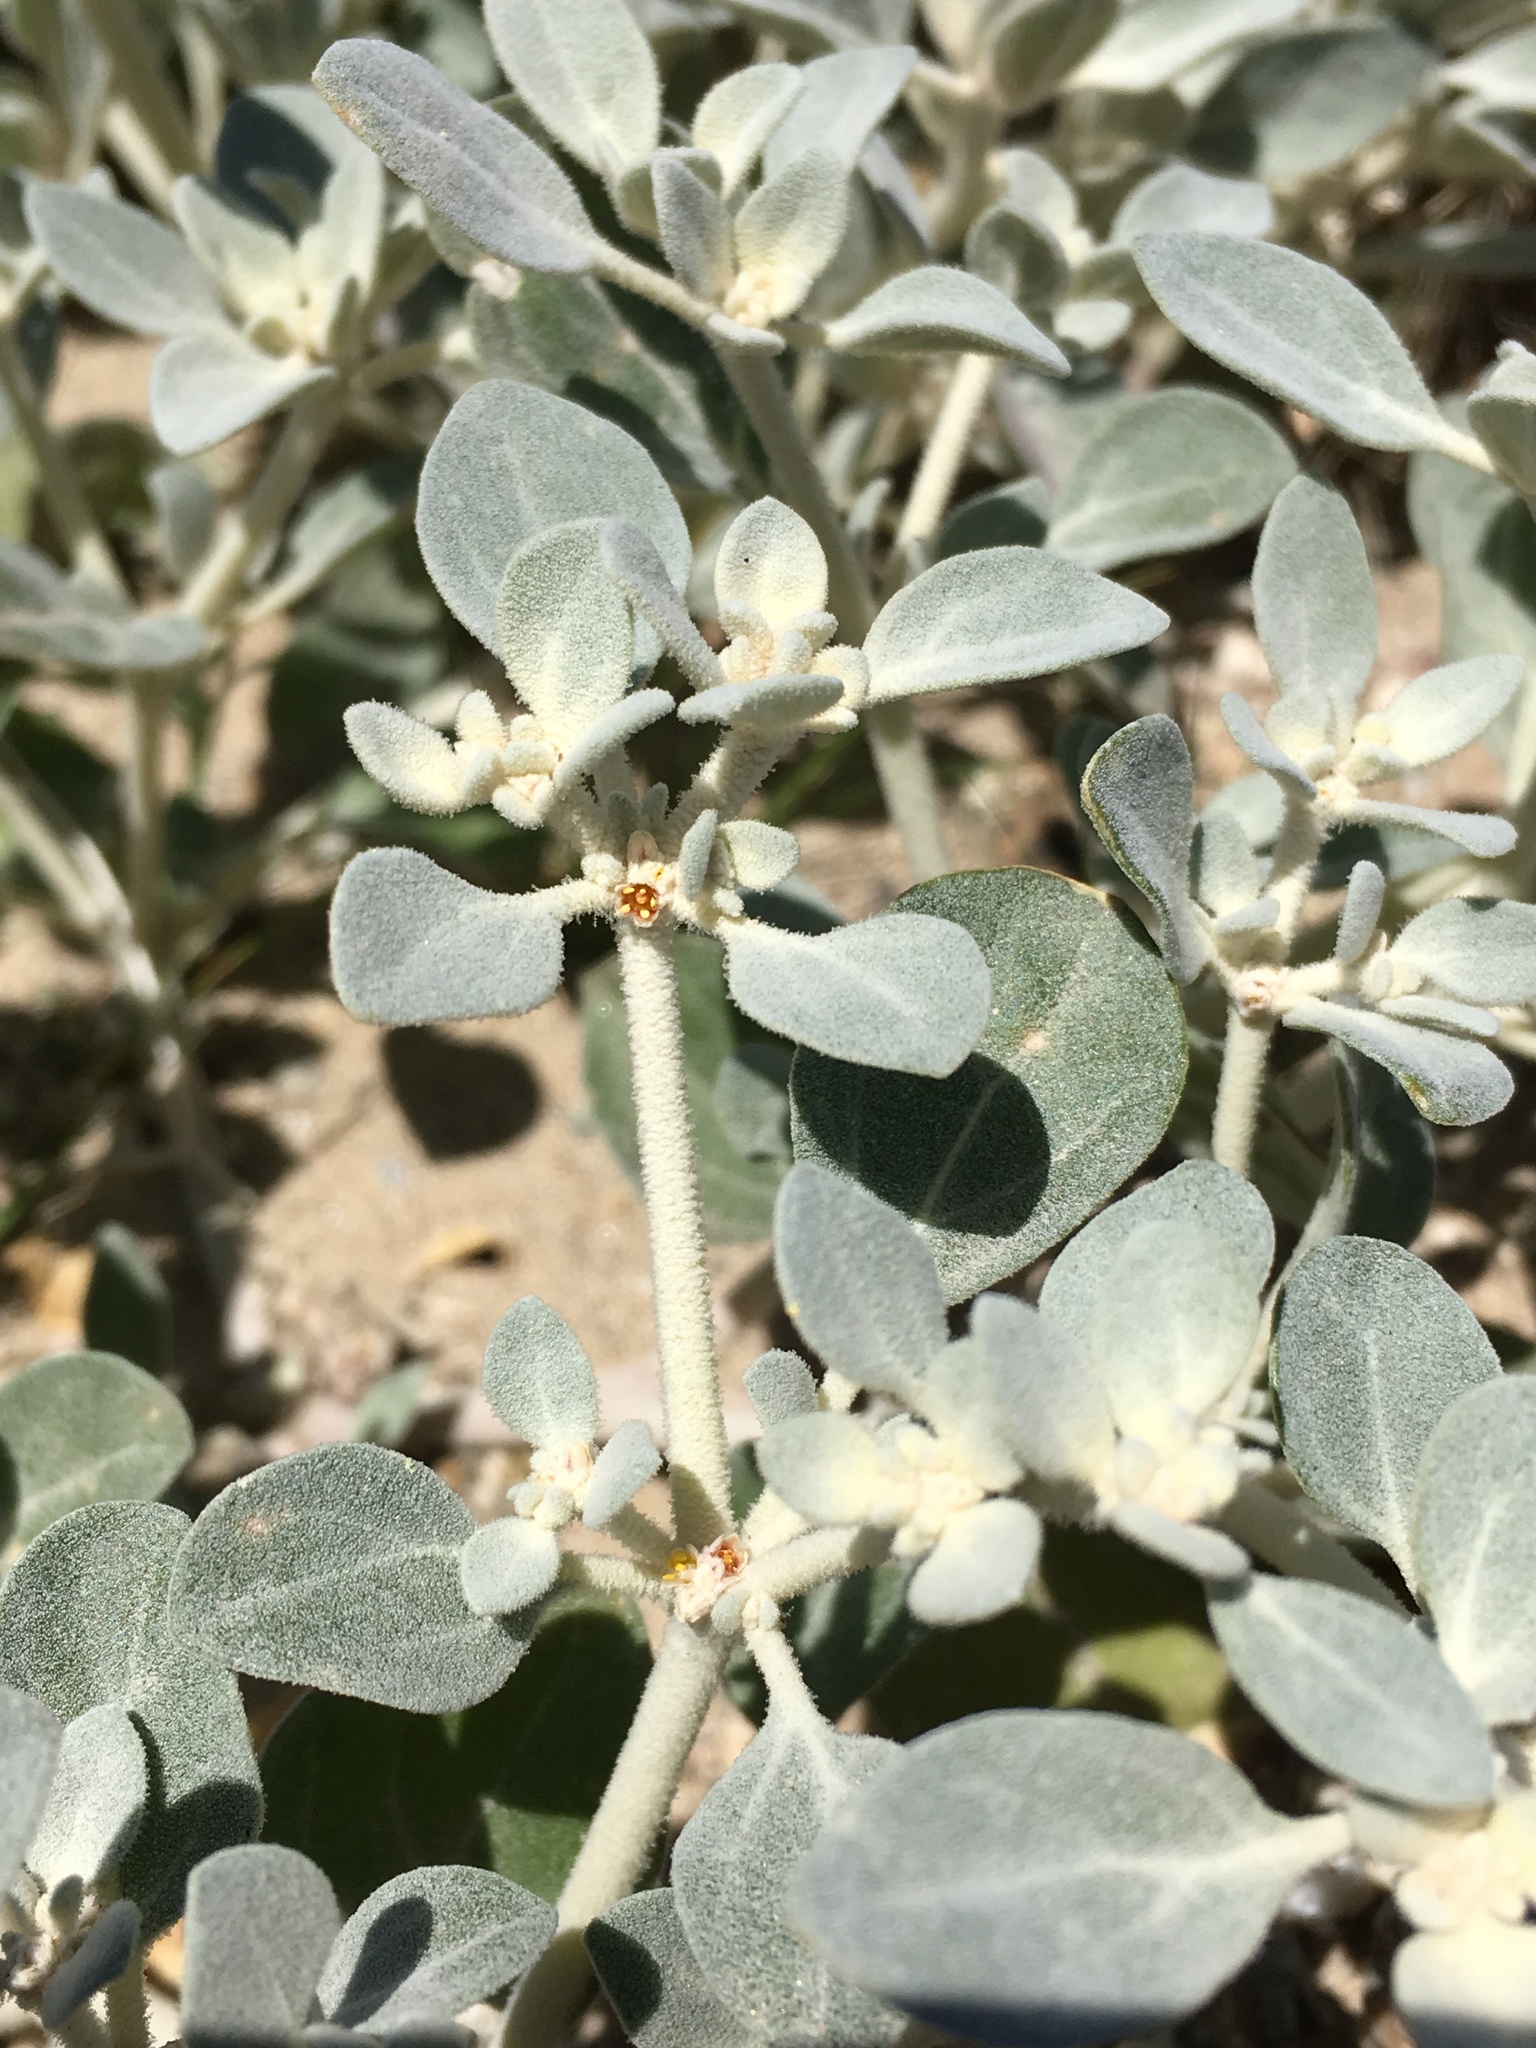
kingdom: Plantae
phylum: Tracheophyta
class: Magnoliopsida
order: Caryophyllales
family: Amaranthaceae
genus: Tidestromia
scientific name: Tidestromia suffruticosa
